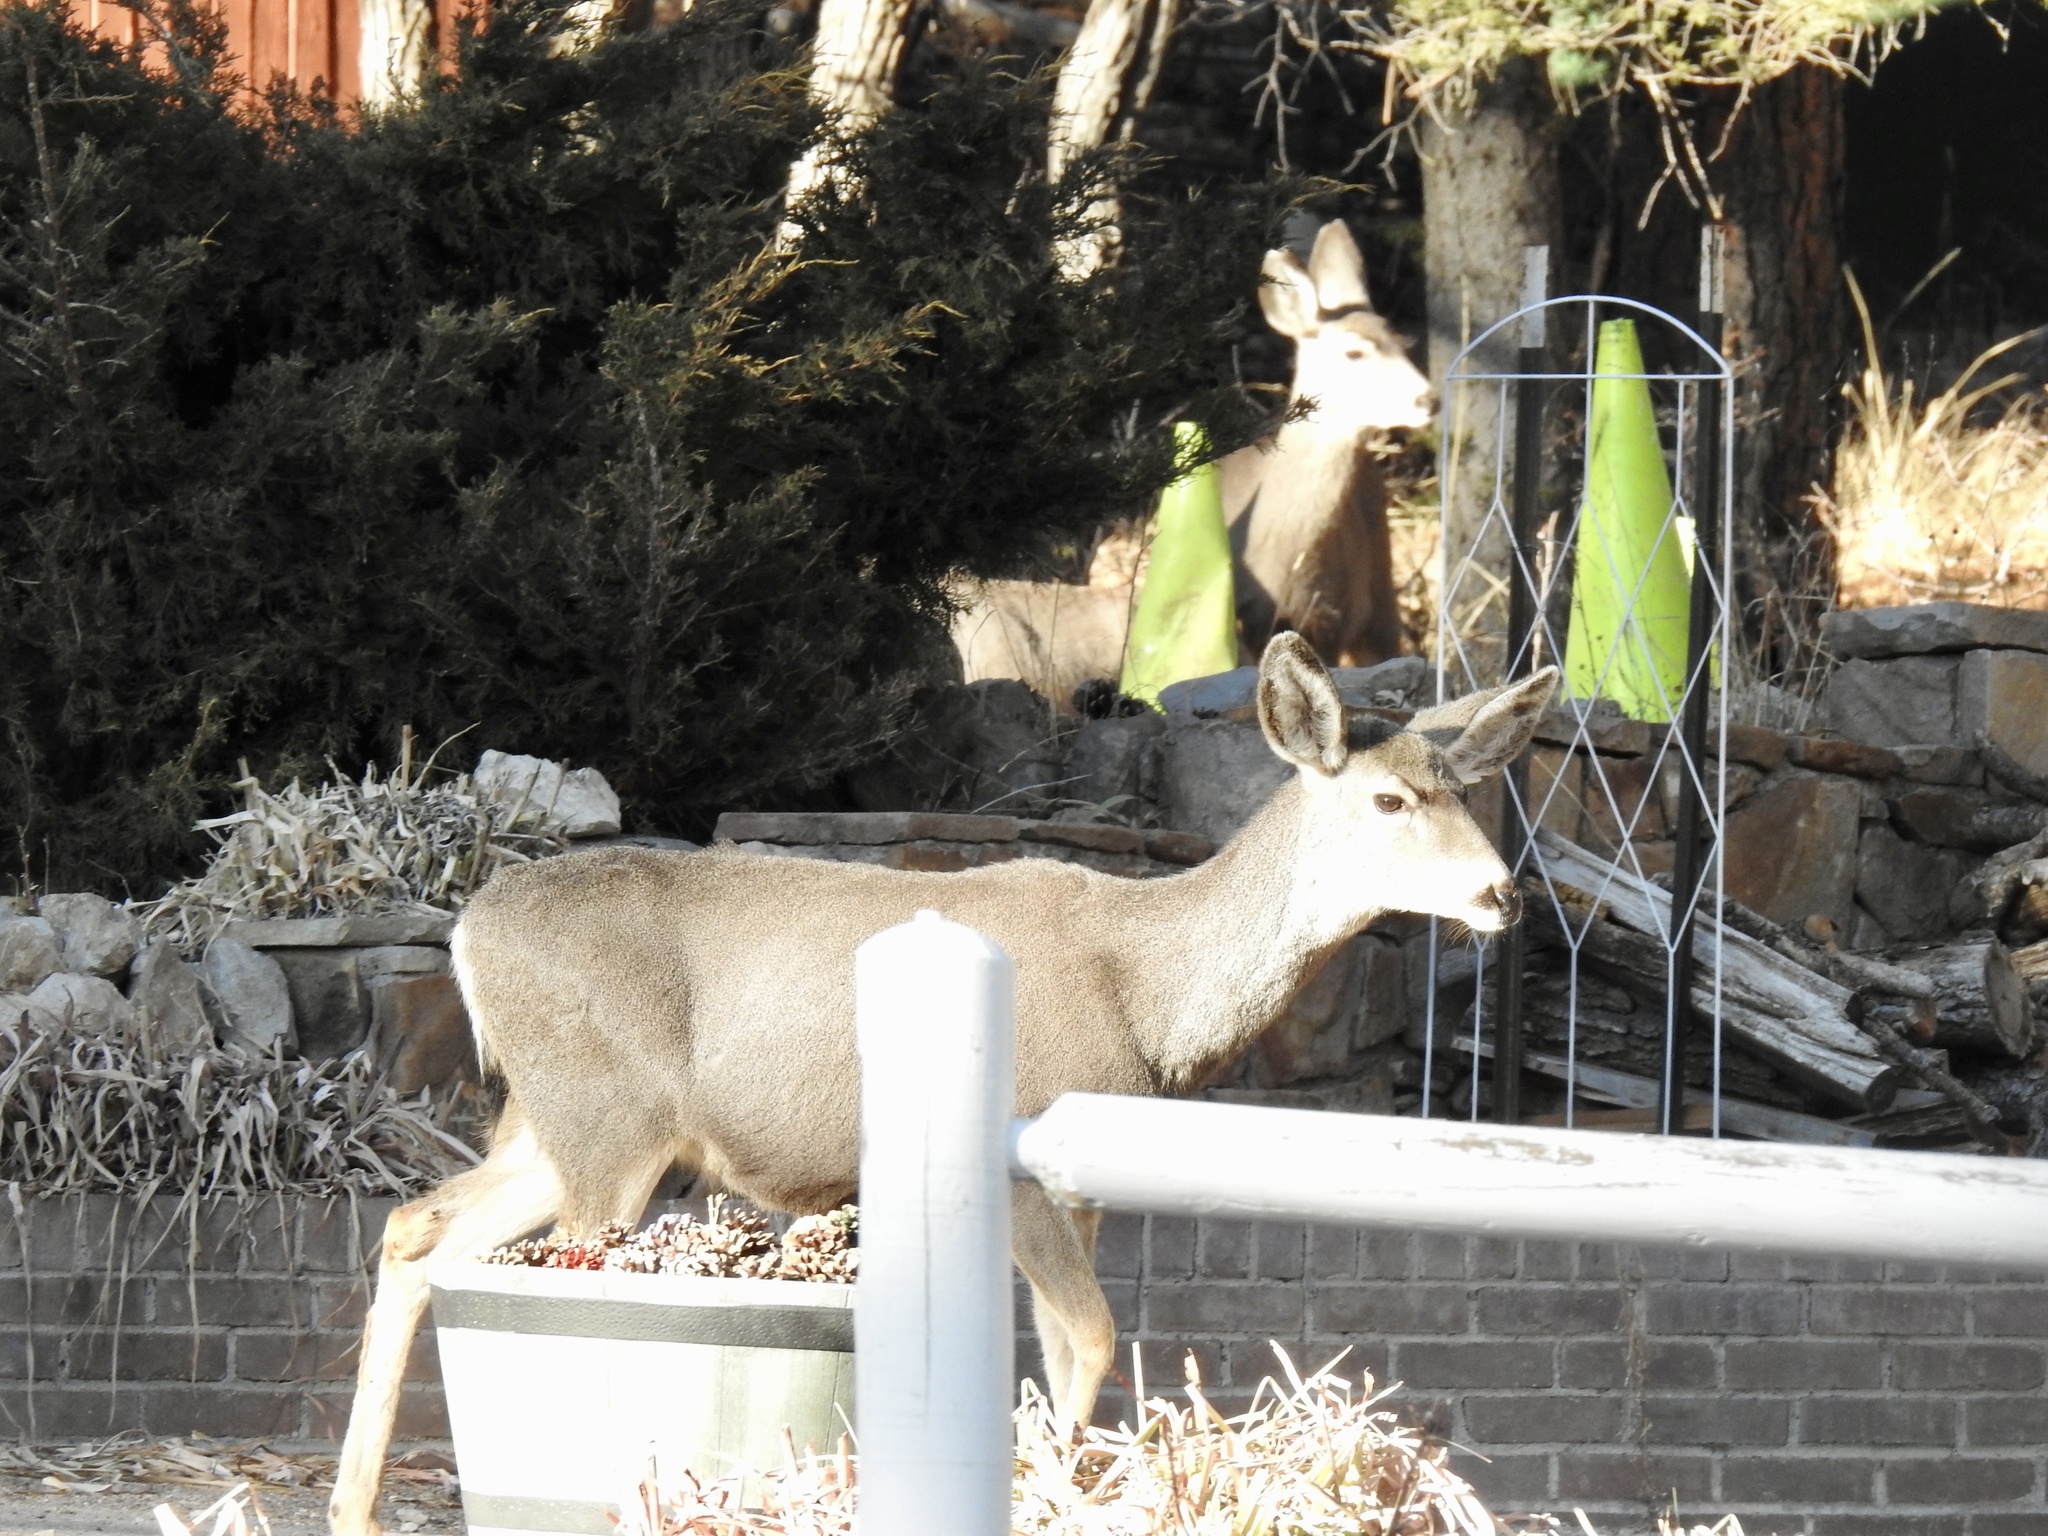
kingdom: Animalia
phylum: Chordata
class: Mammalia
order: Artiodactyla
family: Cervidae
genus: Odocoileus
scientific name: Odocoileus hemionus
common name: Mule deer
